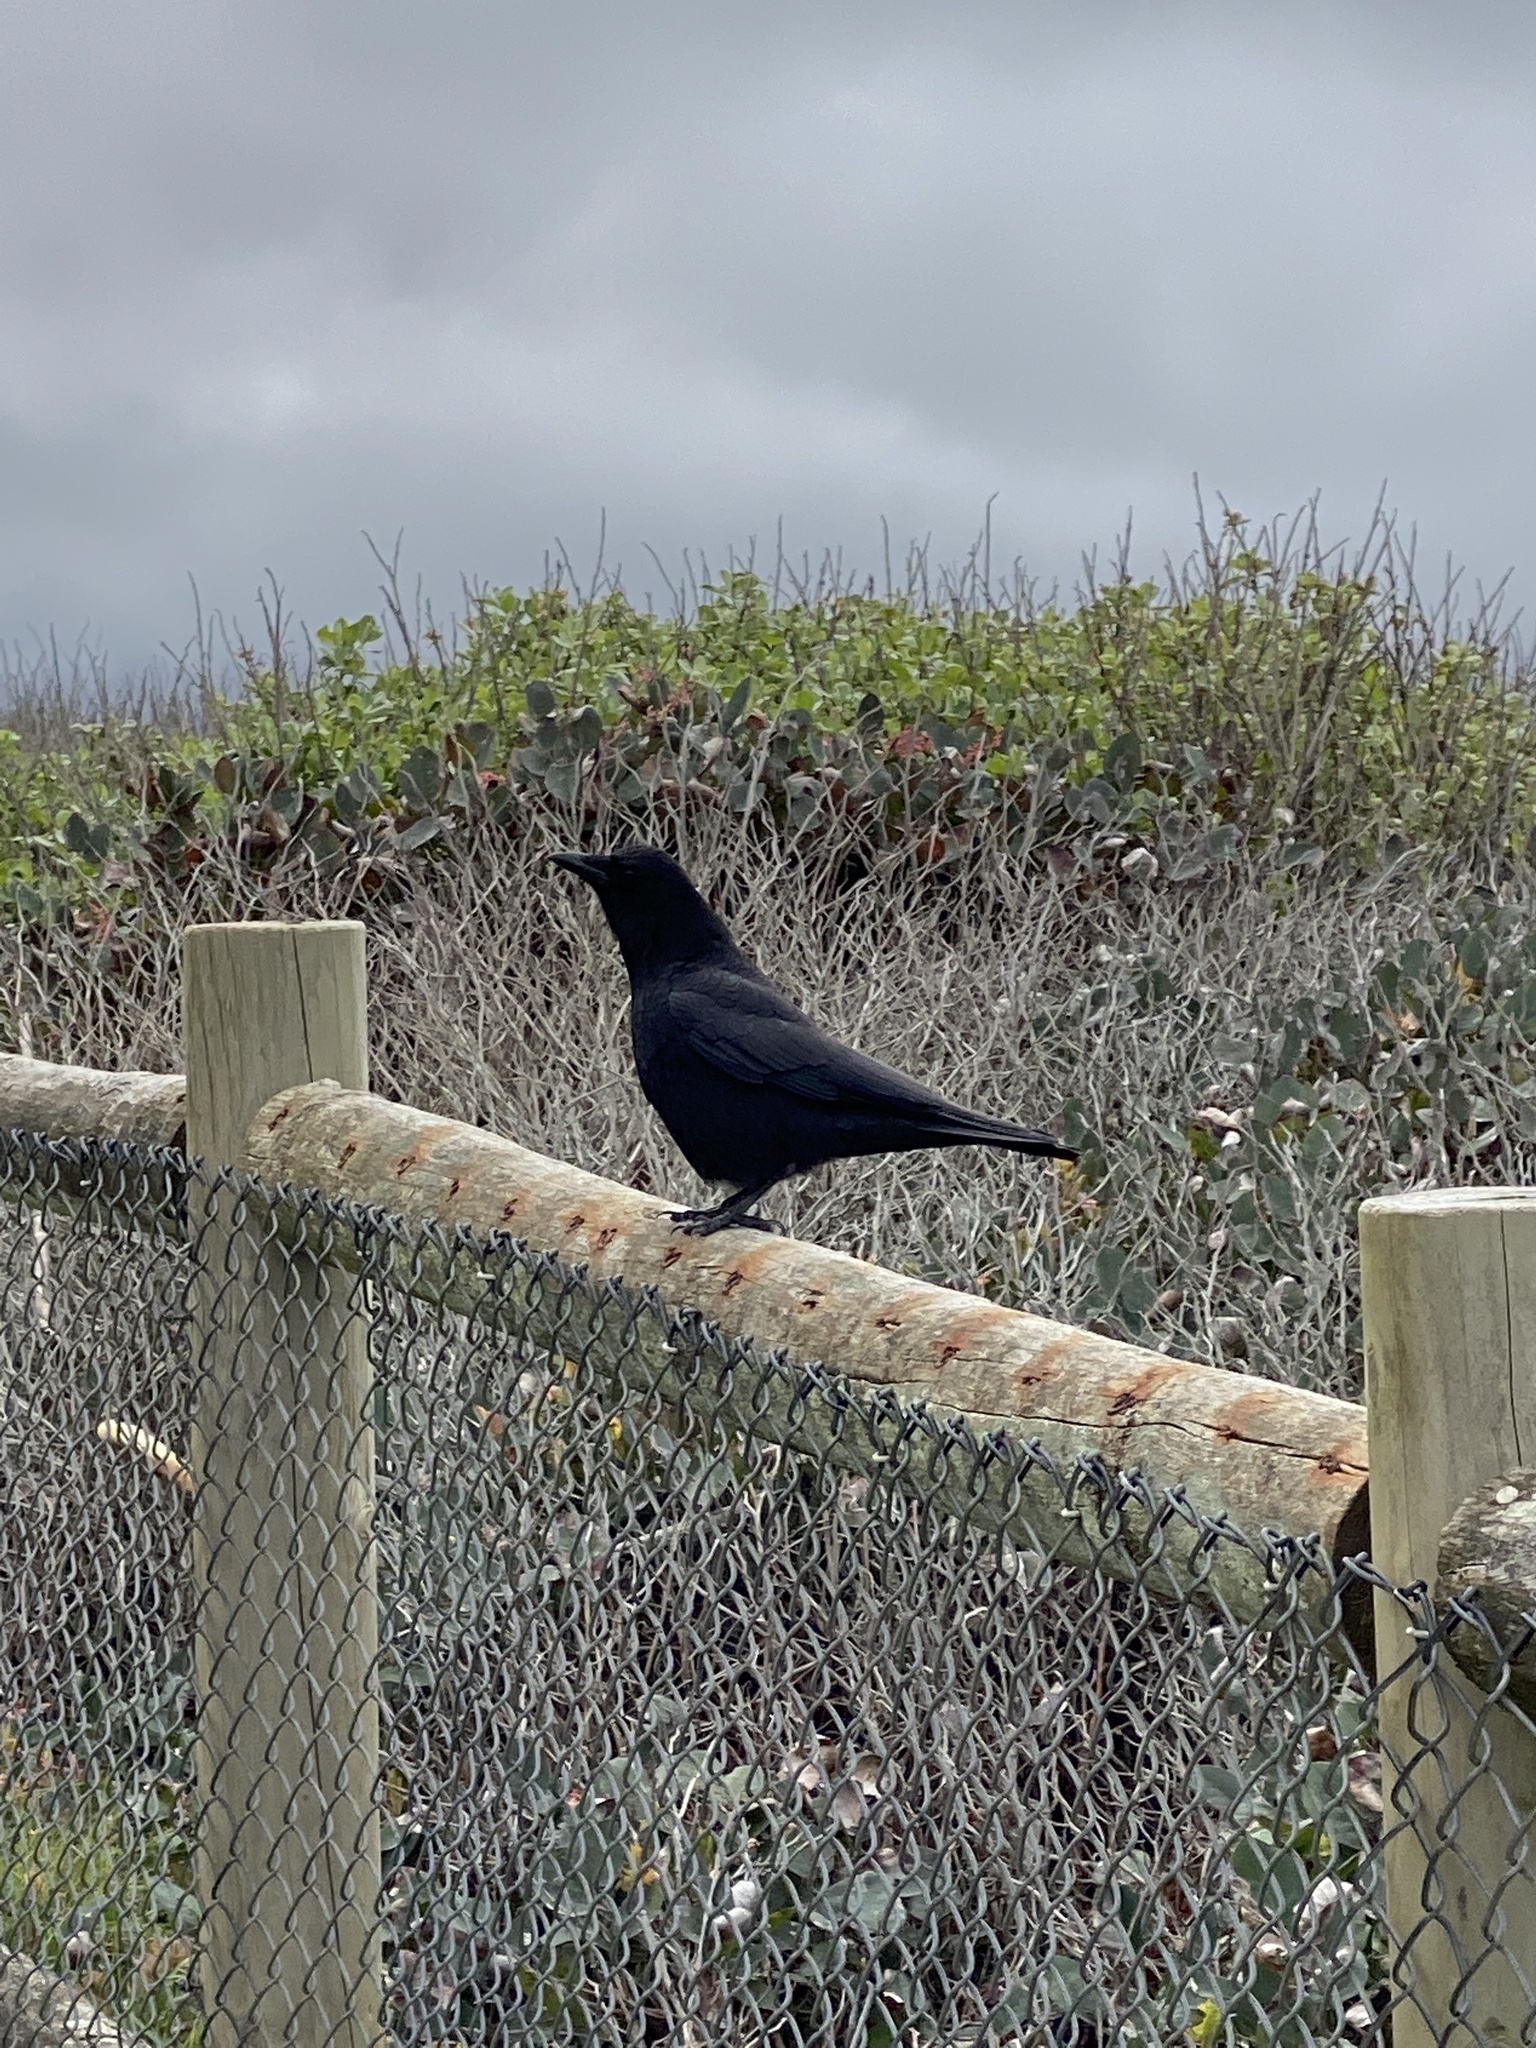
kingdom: Animalia
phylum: Chordata
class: Aves
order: Passeriformes
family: Corvidae
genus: Corvus
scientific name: Corvus brachyrhynchos
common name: American crow
